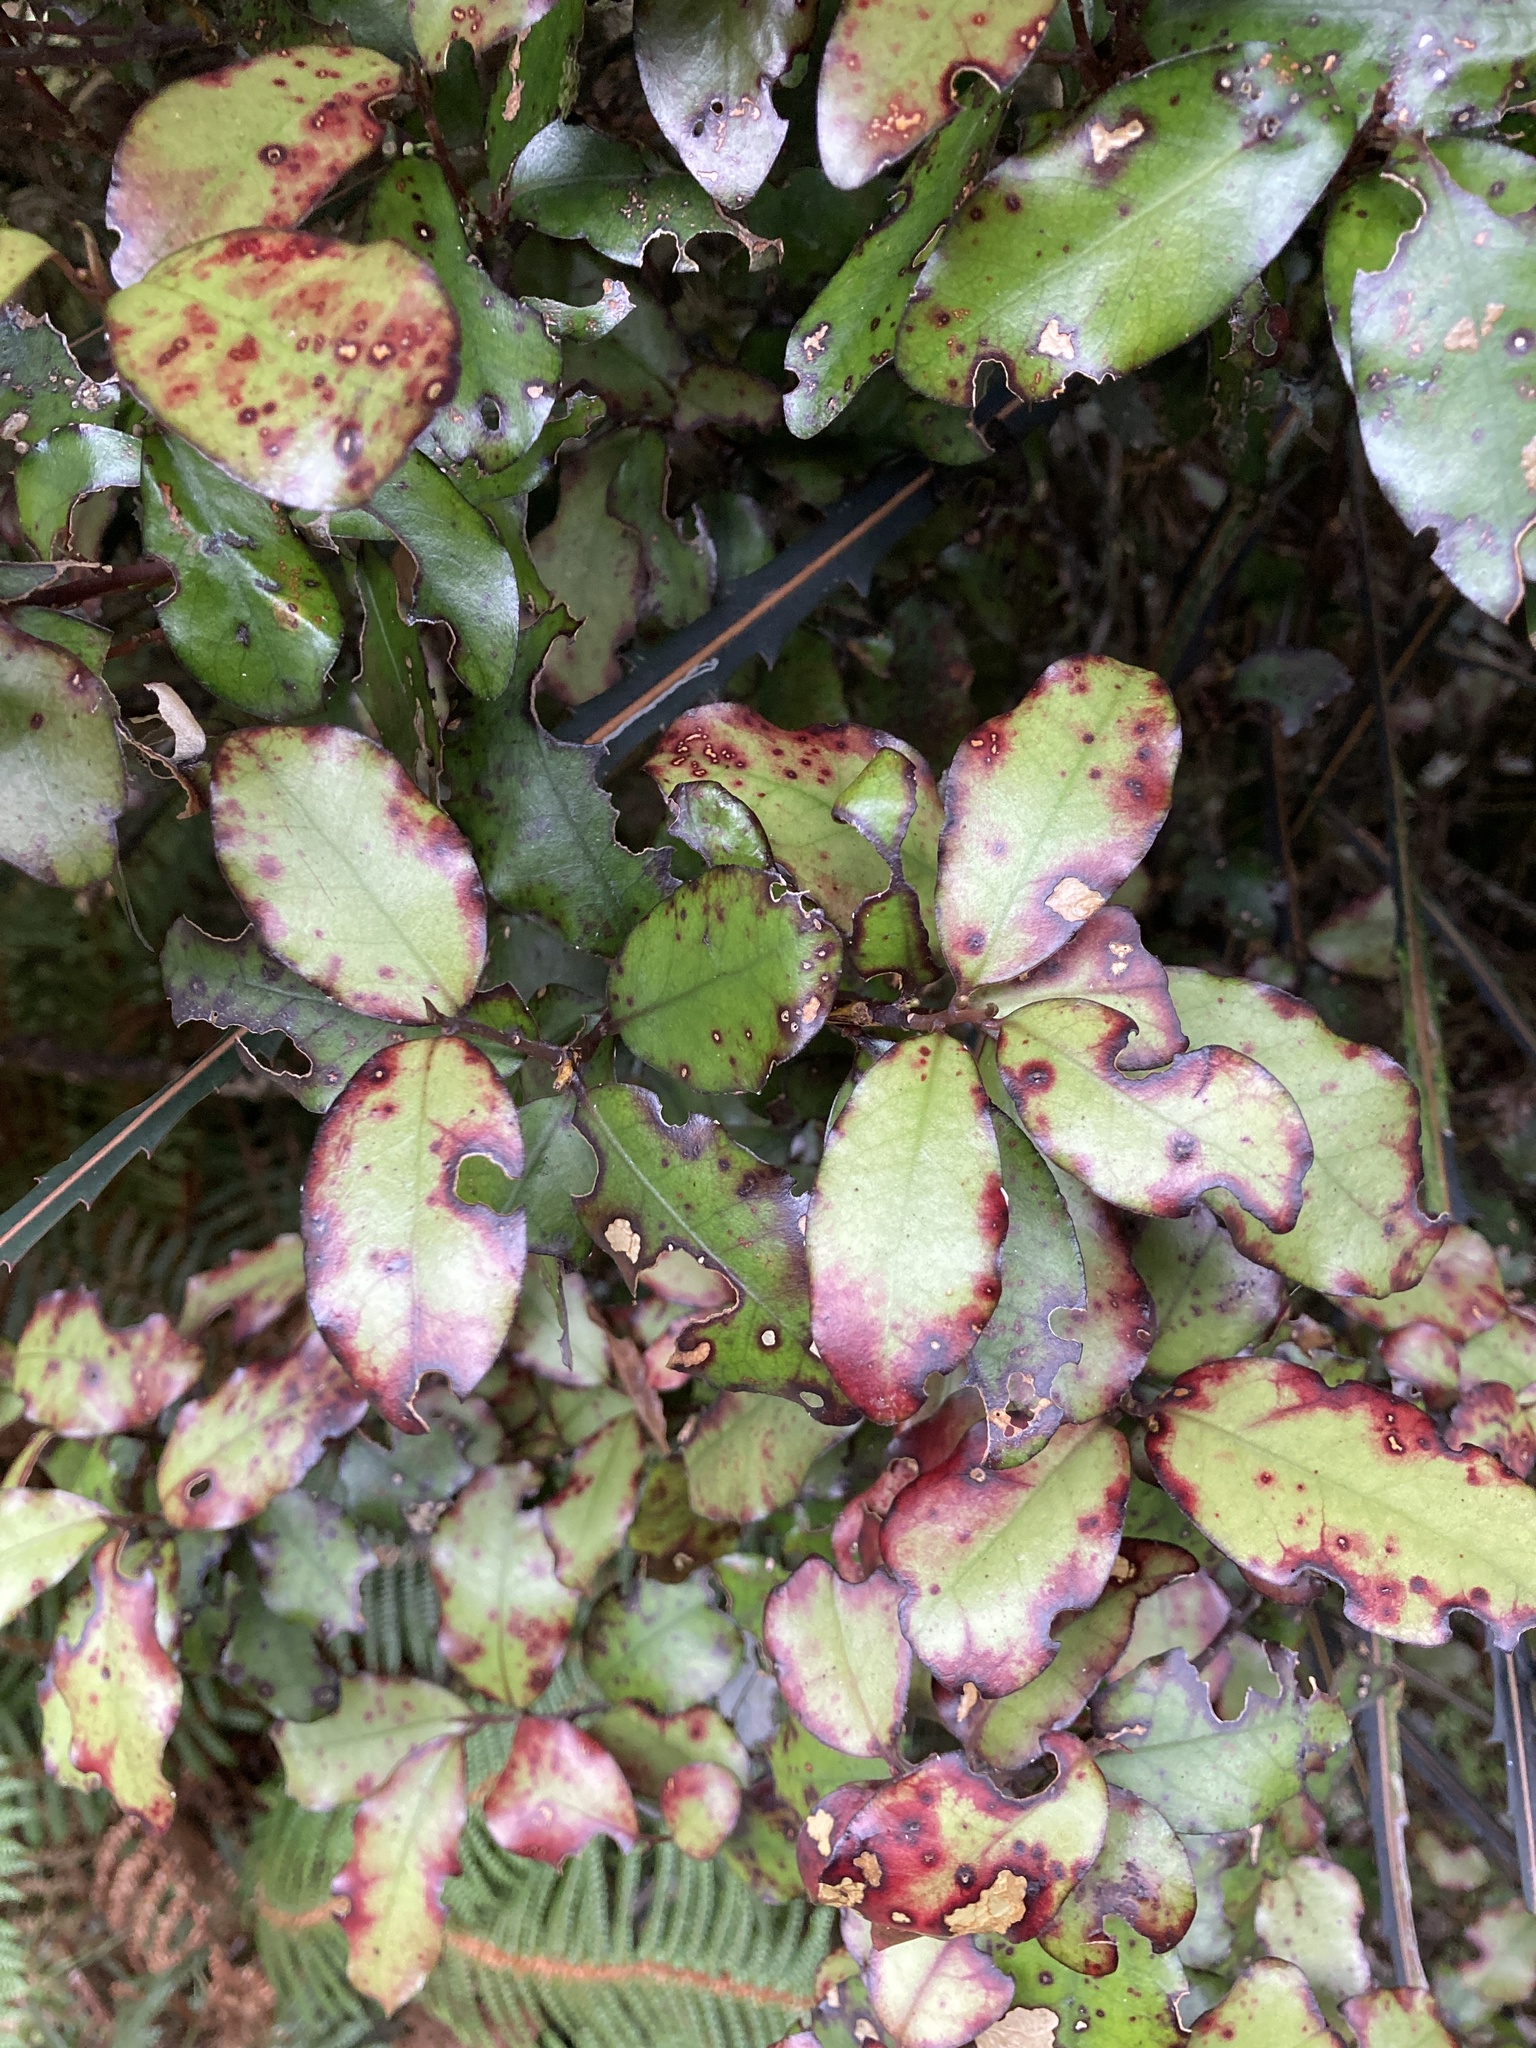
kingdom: Plantae
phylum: Tracheophyta
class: Magnoliopsida
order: Canellales
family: Winteraceae
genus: Pseudowintera
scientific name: Pseudowintera colorata
